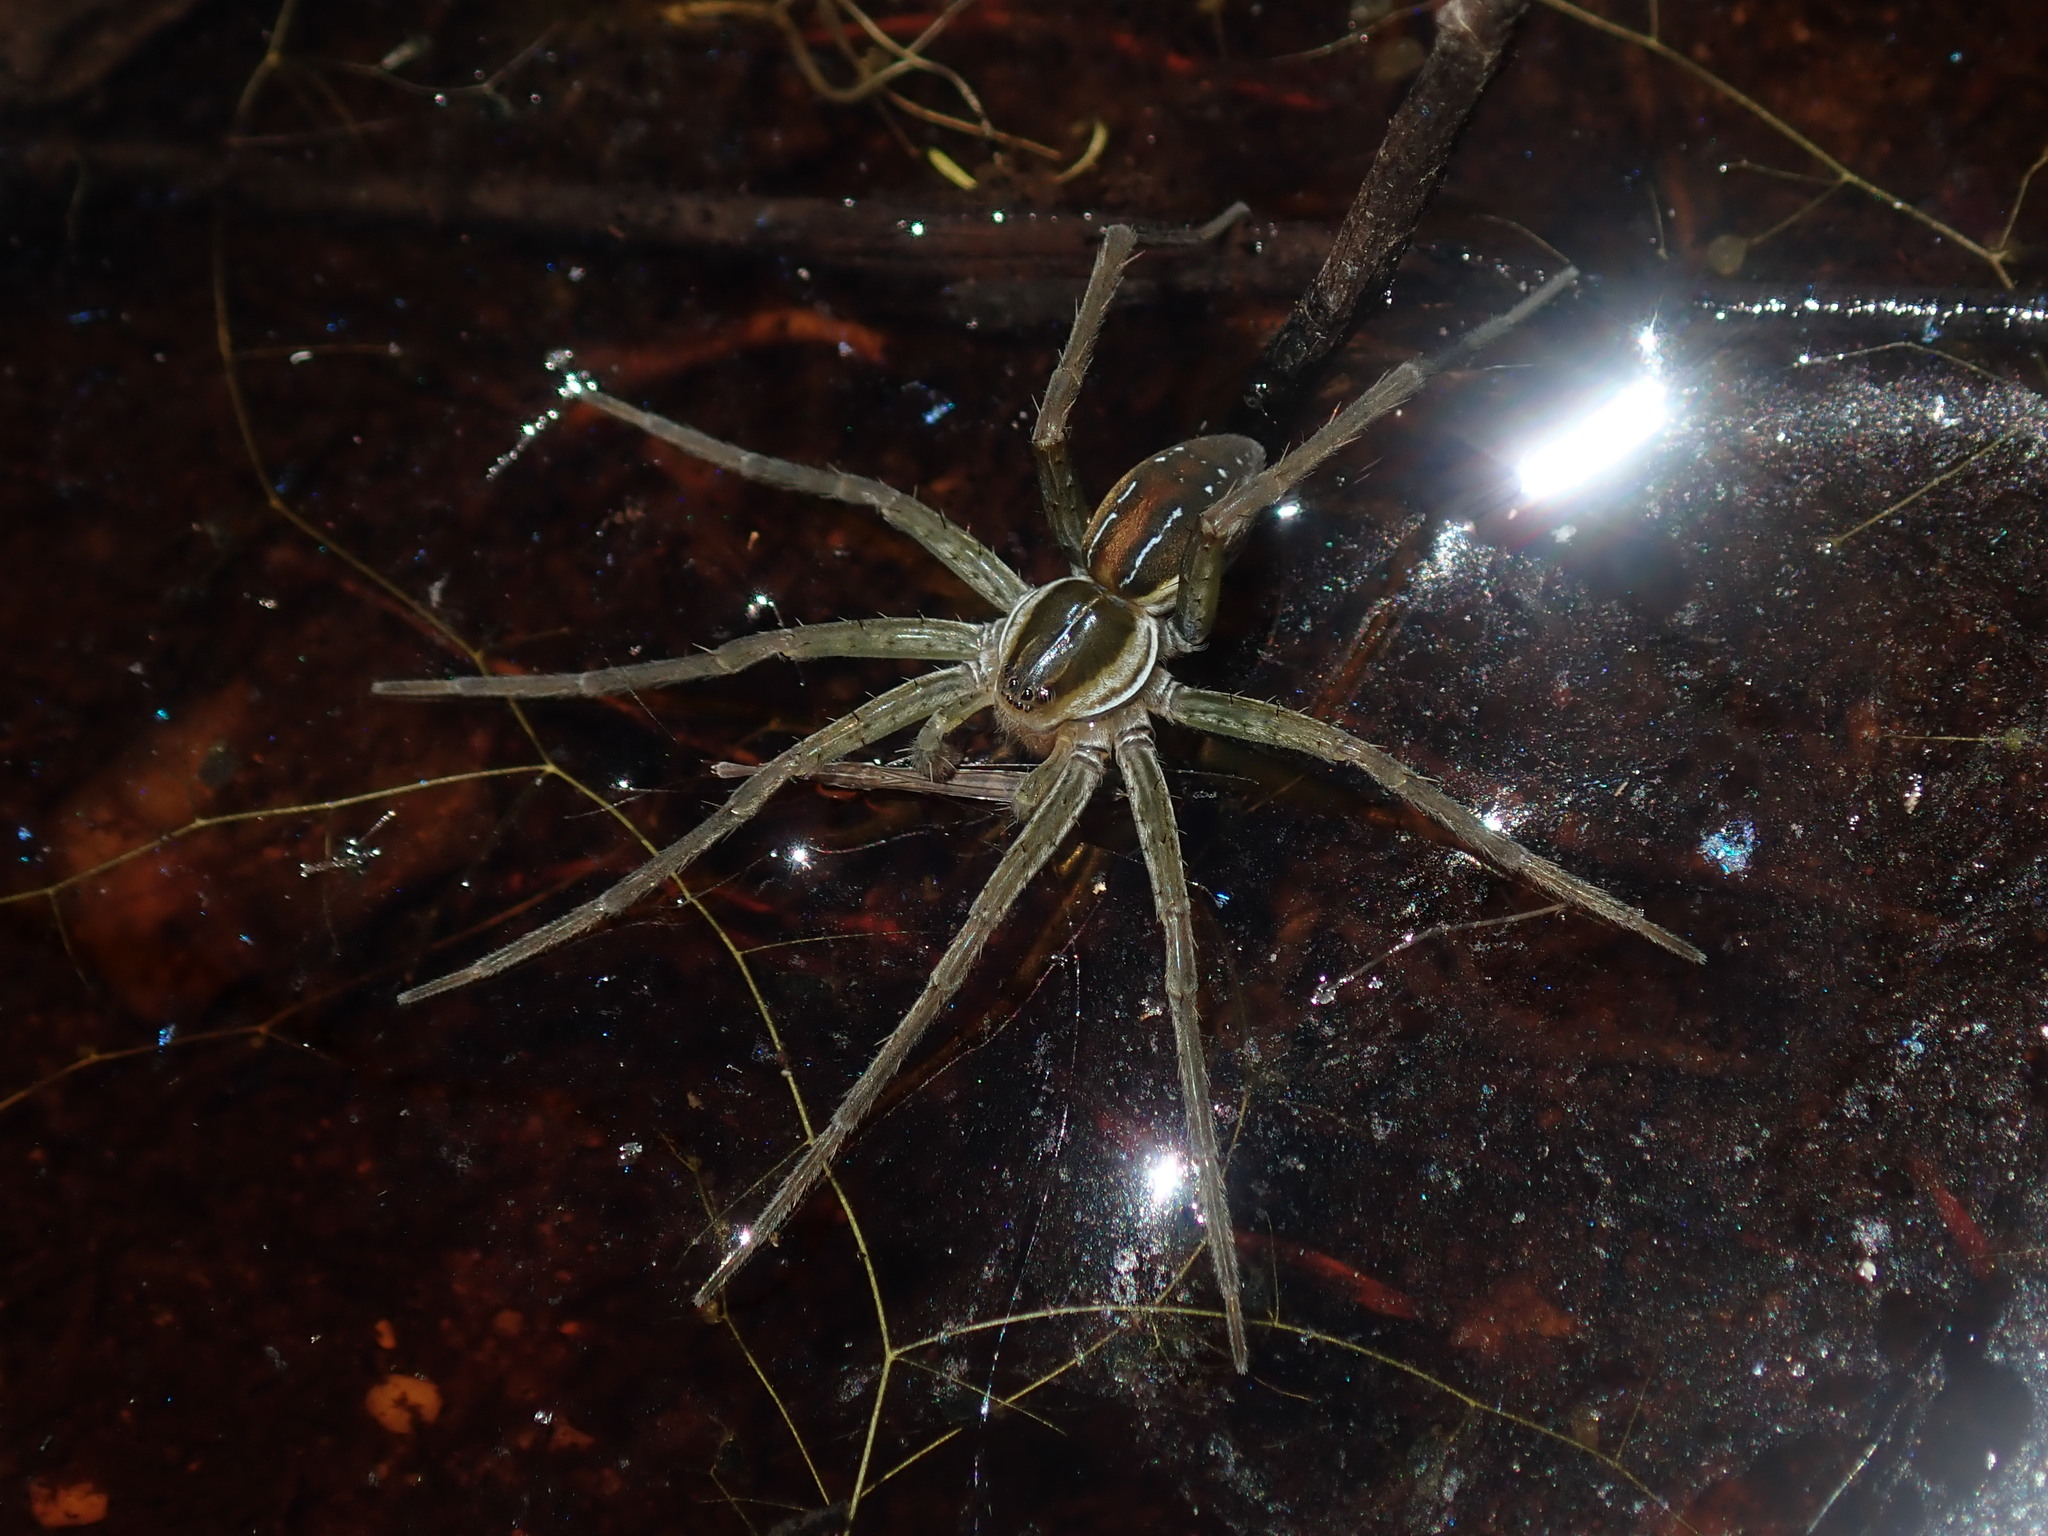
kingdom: Animalia
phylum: Arthropoda
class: Arachnida
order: Araneae
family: Pisauridae
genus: Dolomedes
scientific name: Dolomedes facetus
